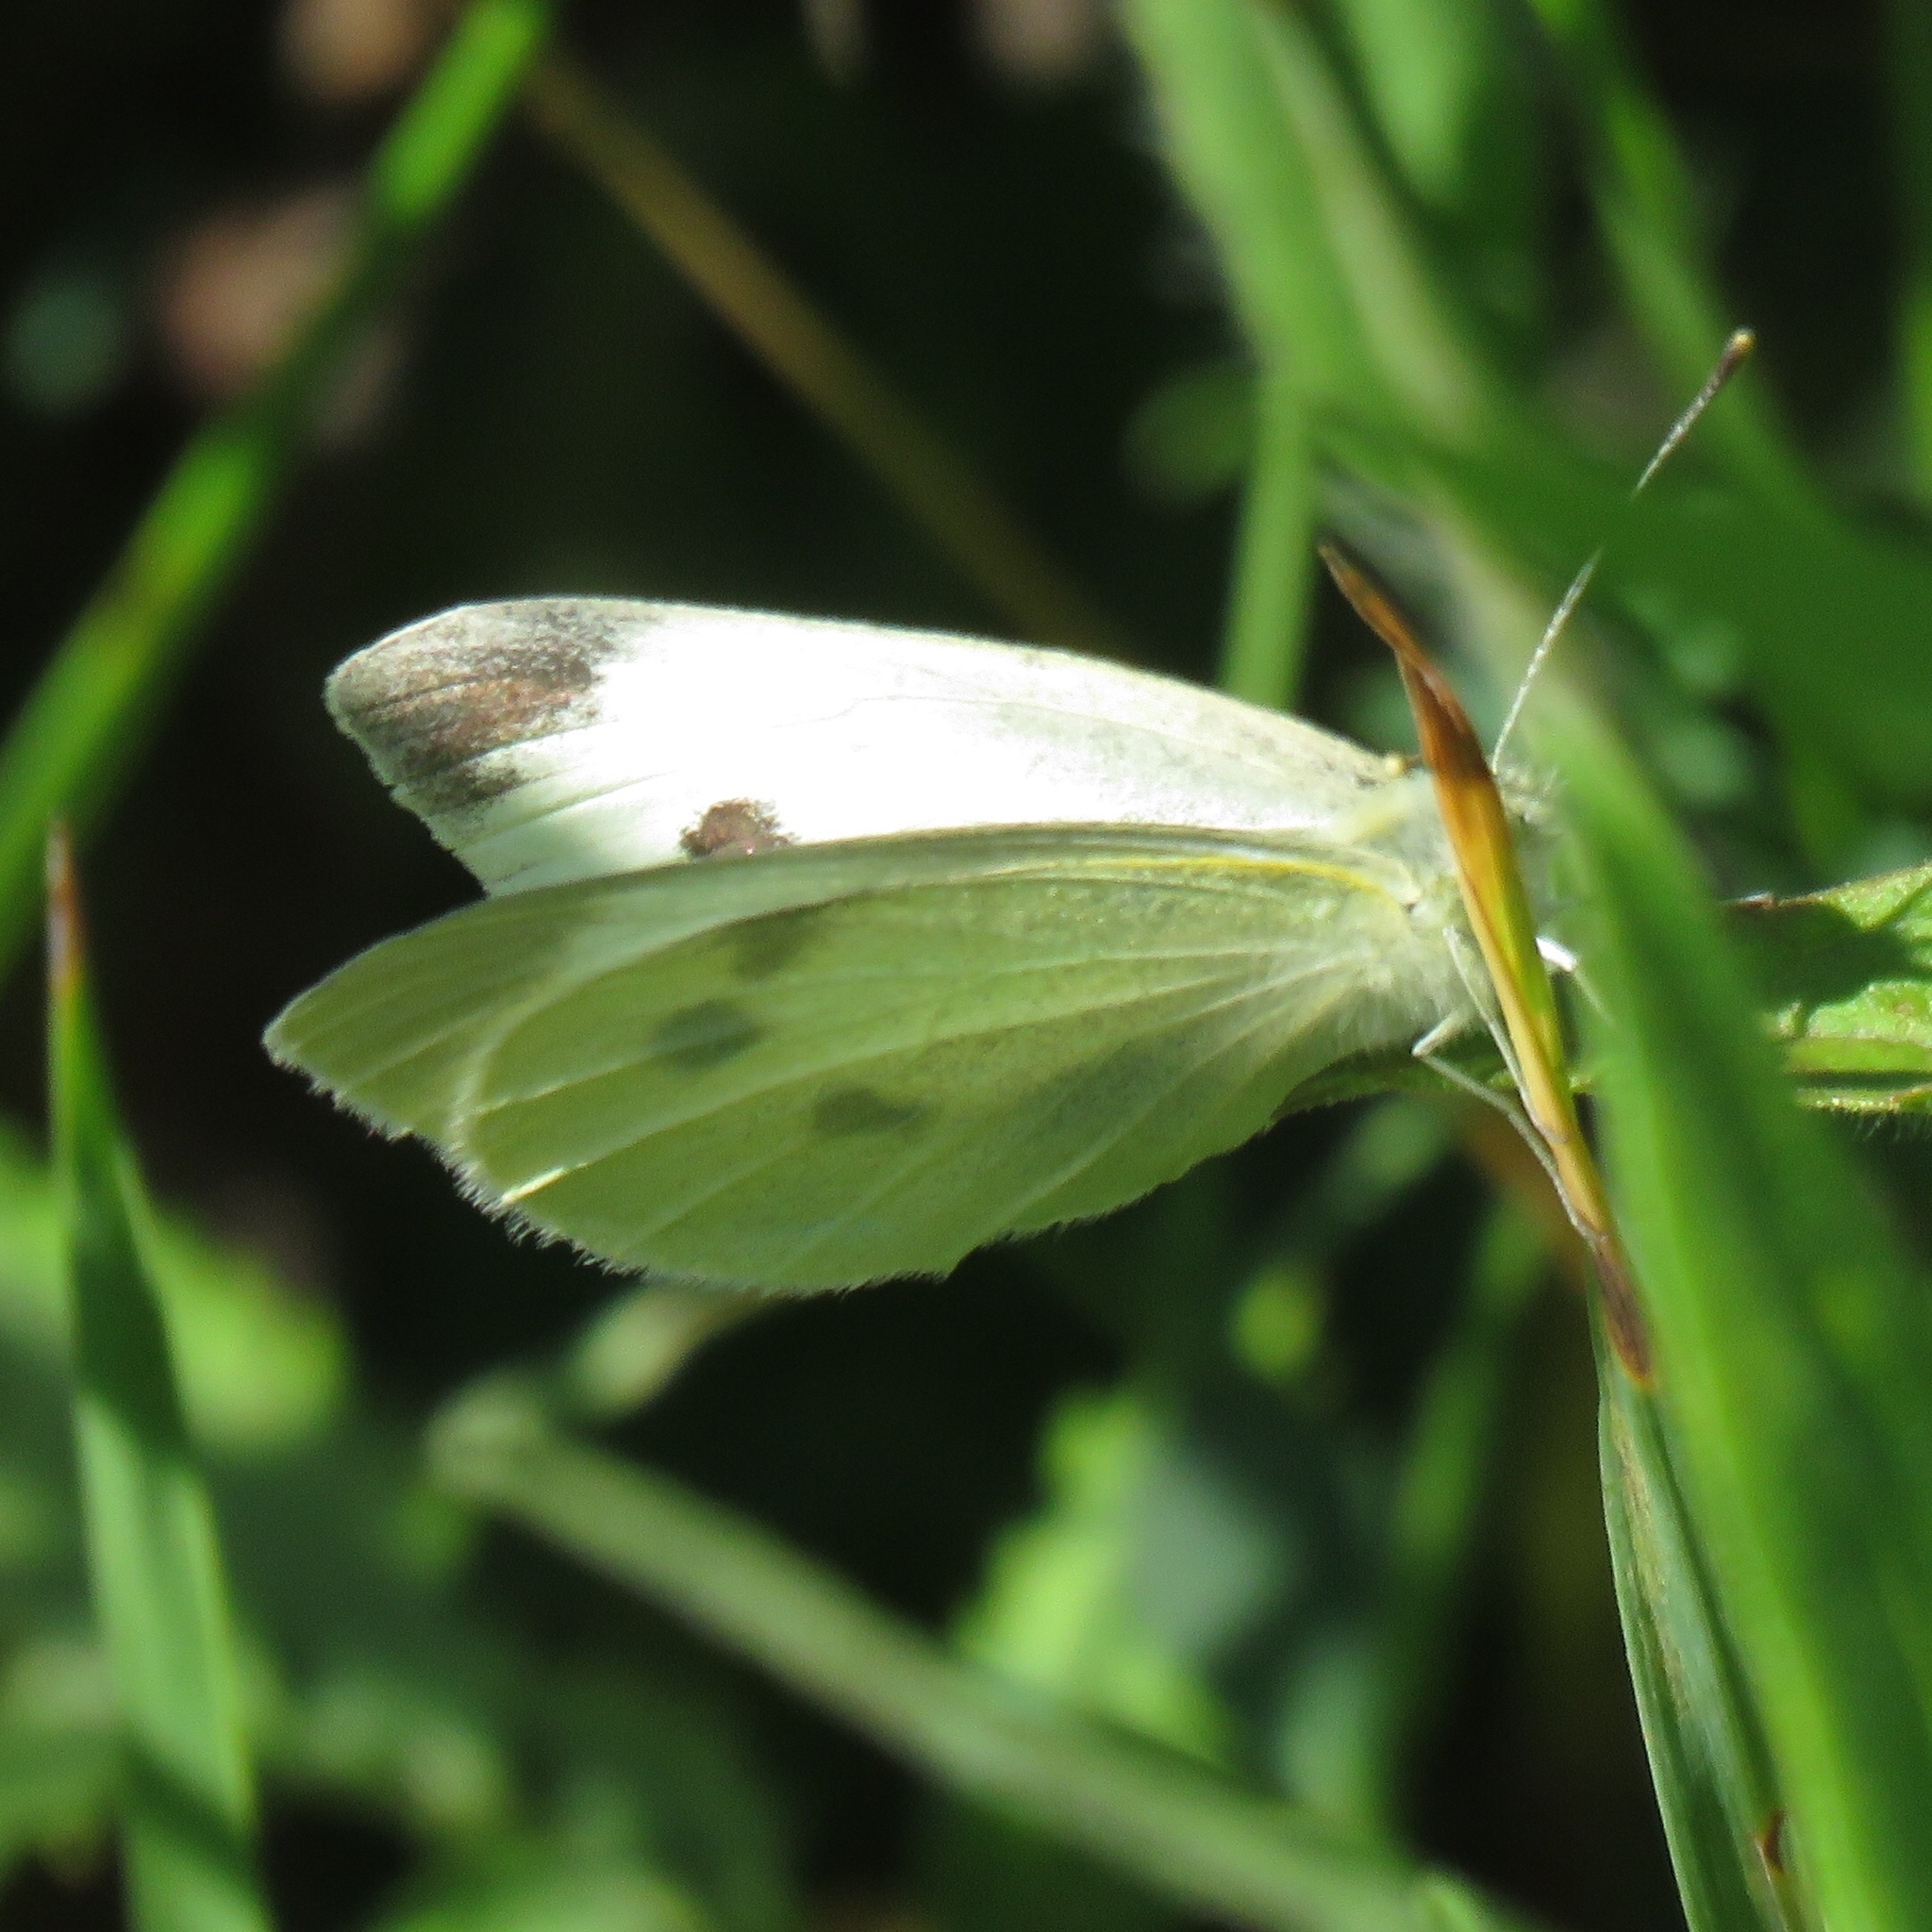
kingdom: Animalia
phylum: Arthropoda
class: Insecta
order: Lepidoptera
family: Pieridae
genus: Pieris
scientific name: Pieris rapae
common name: Small white
